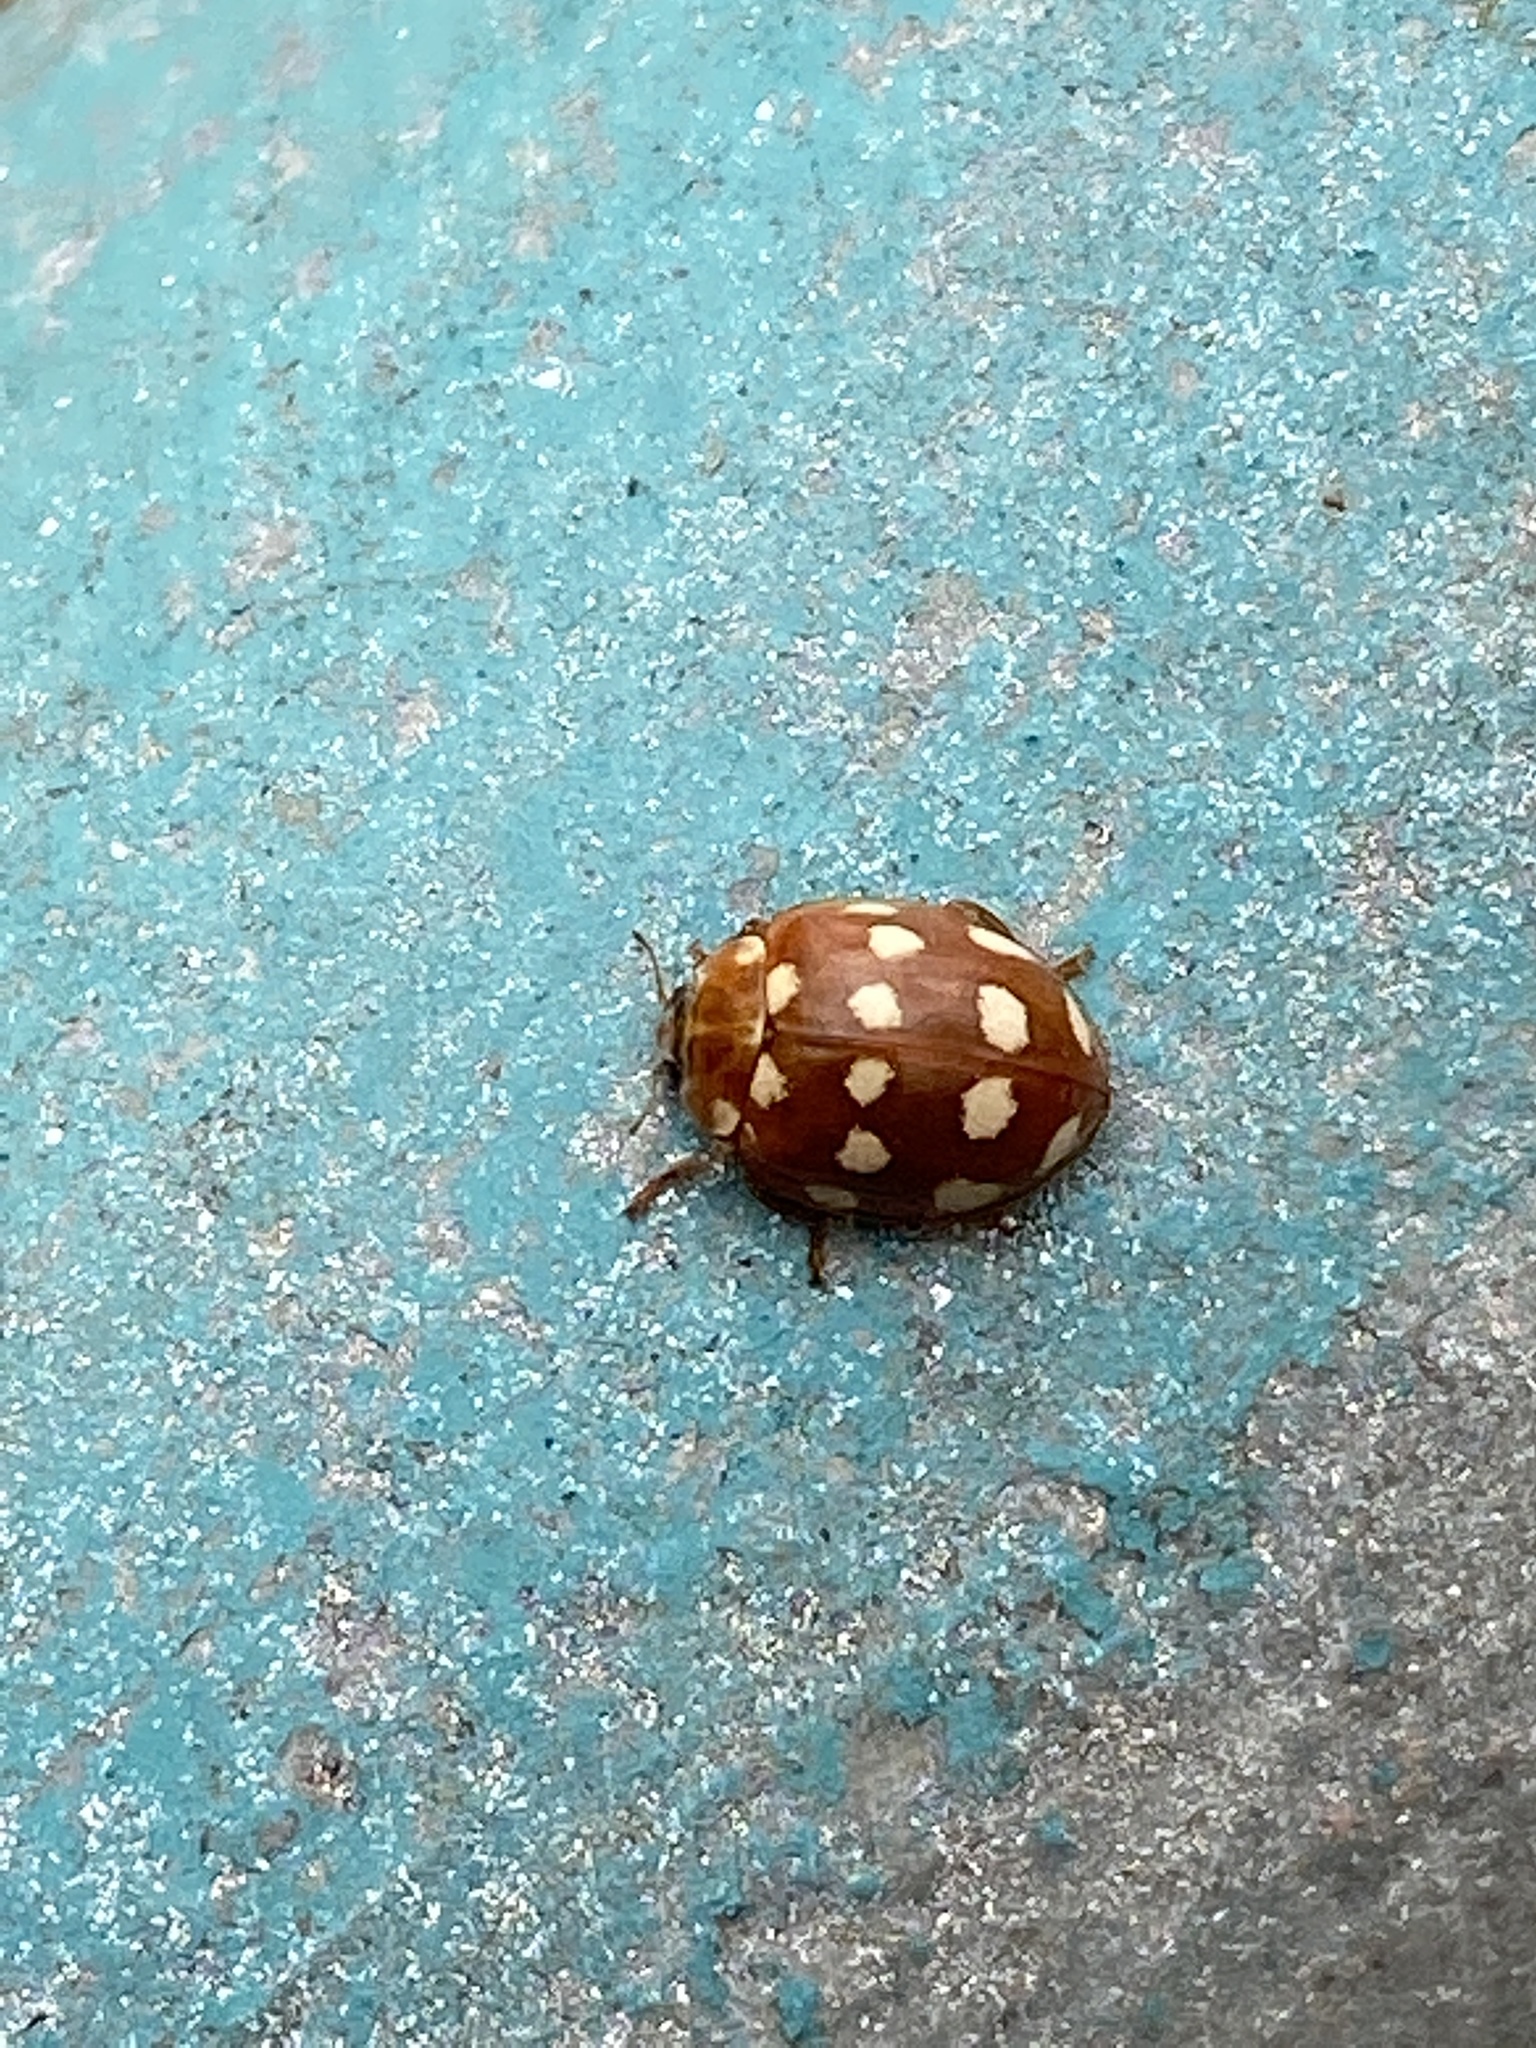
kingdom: Animalia
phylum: Arthropoda
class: Insecta
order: Coleoptera
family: Coccinellidae
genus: Calvia
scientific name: Calvia quatuordecimguttata
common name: Cream-spot ladybird
